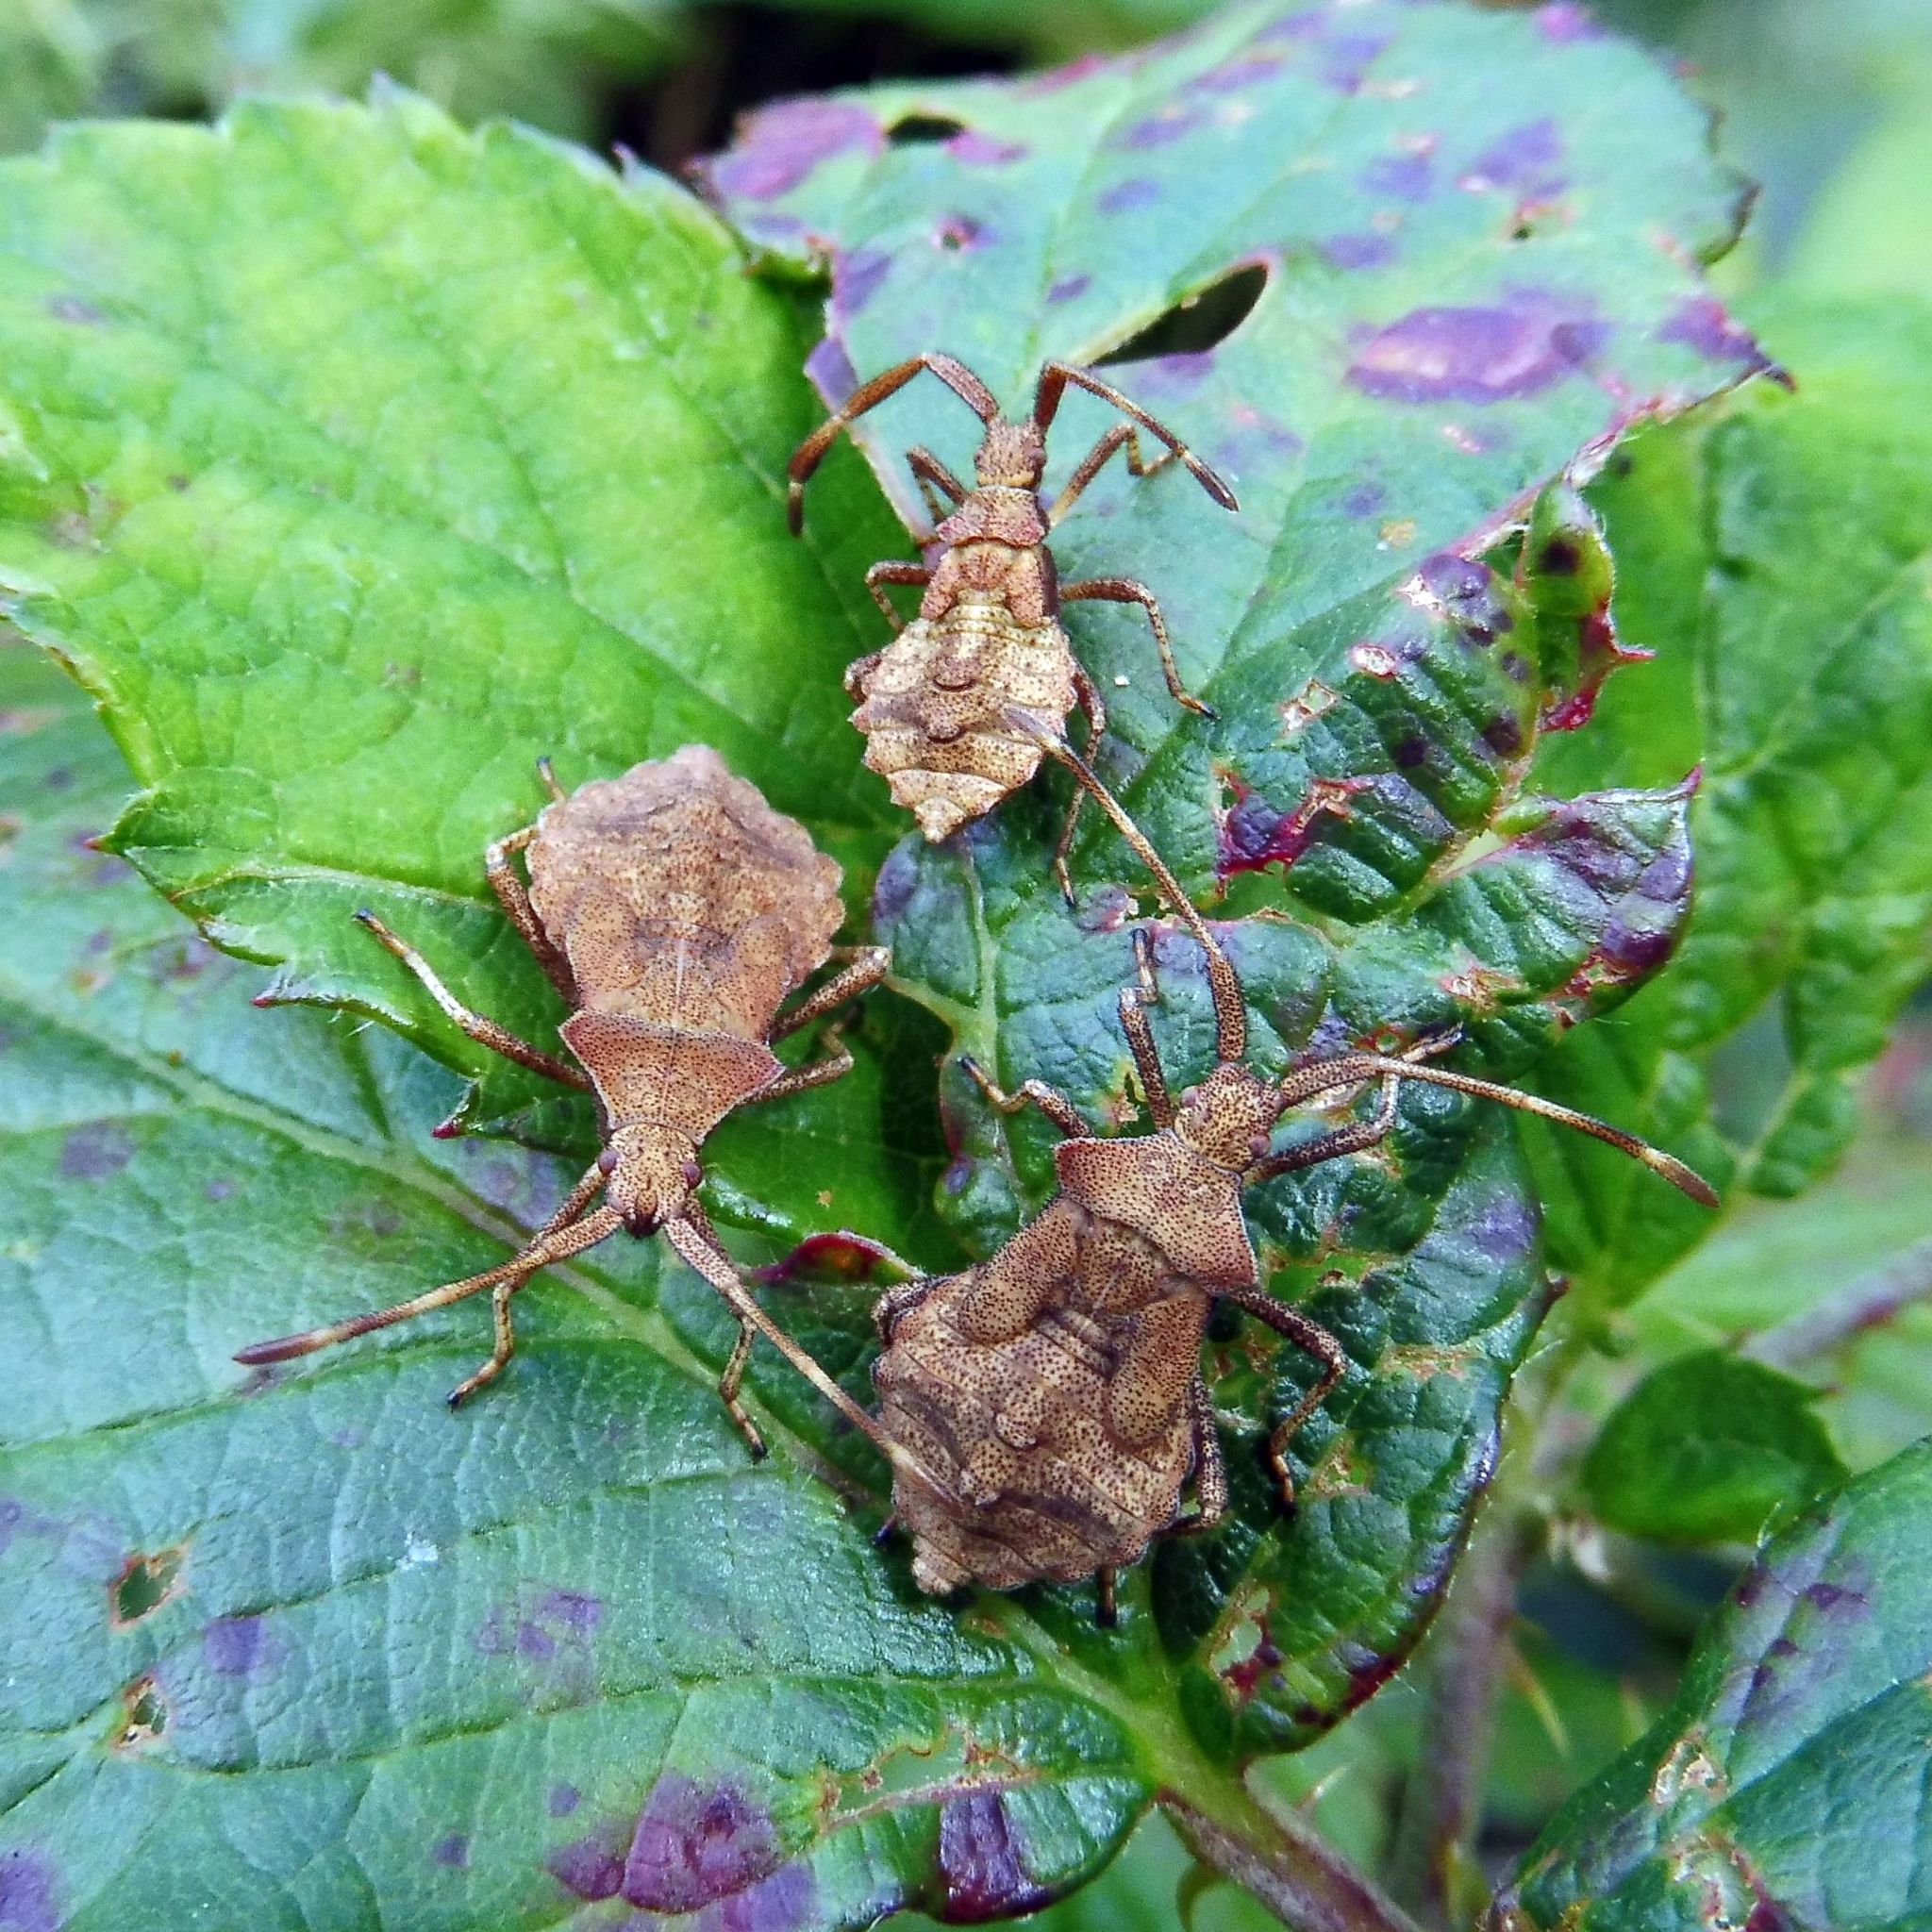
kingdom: Animalia
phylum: Arthropoda
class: Insecta
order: Hemiptera
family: Coreidae
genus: Coreus
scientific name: Coreus marginatus
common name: Dock bug
